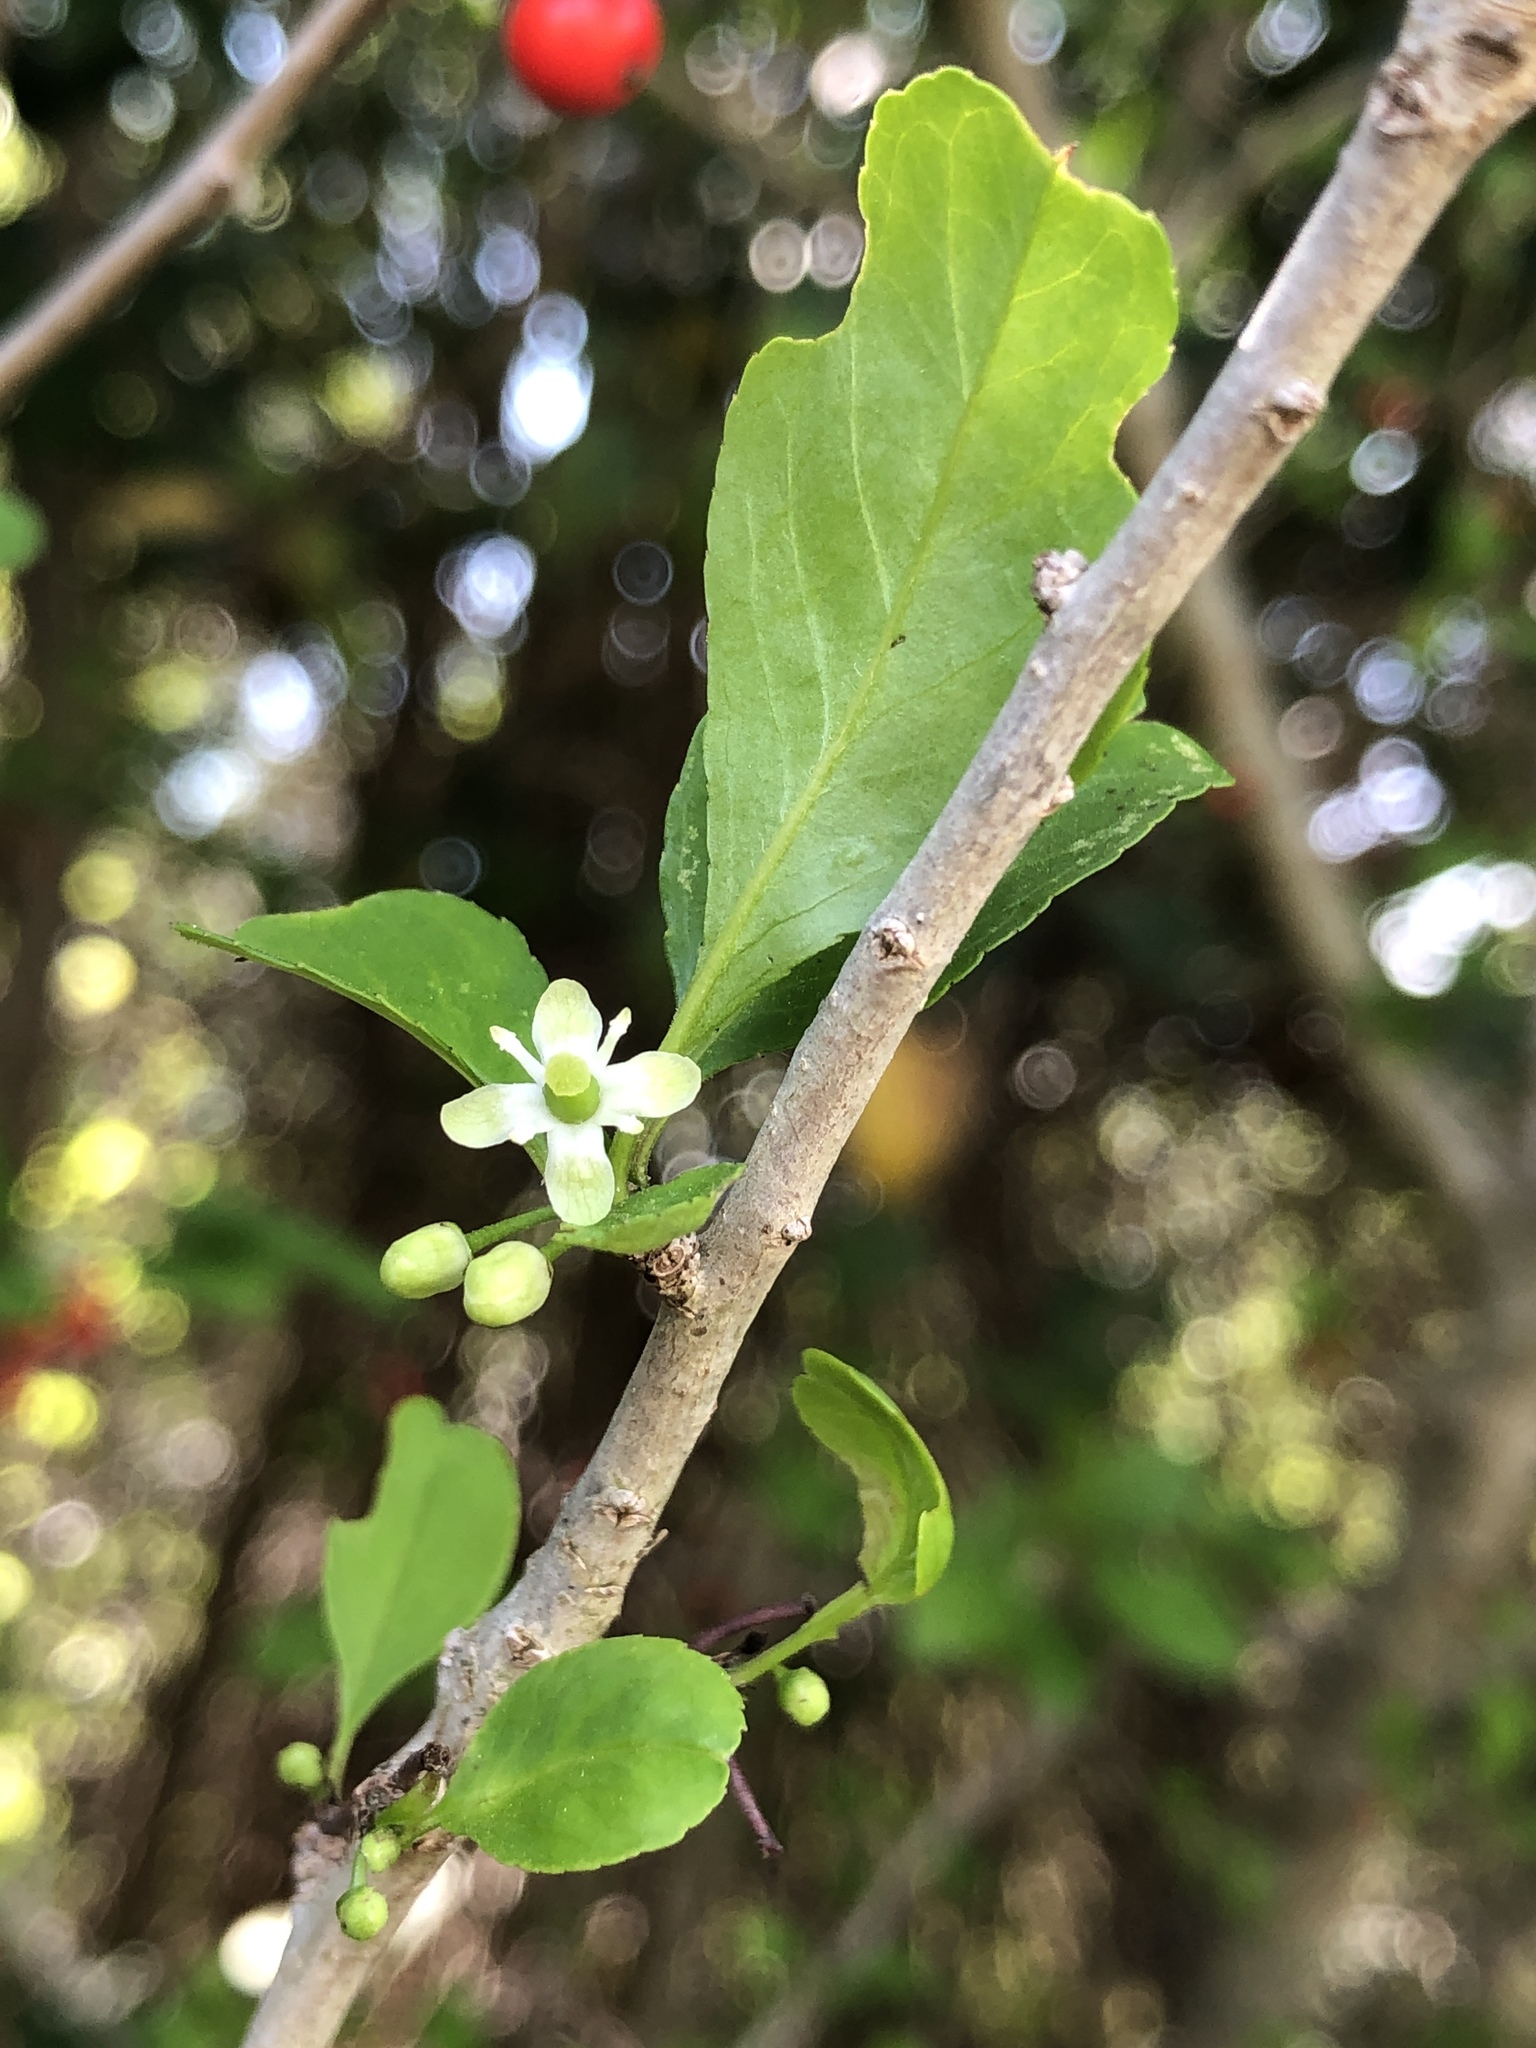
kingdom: Plantae
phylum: Tracheophyta
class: Magnoliopsida
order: Aquifoliales
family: Aquifoliaceae
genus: Ilex
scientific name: Ilex decidua
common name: Possum-haw
